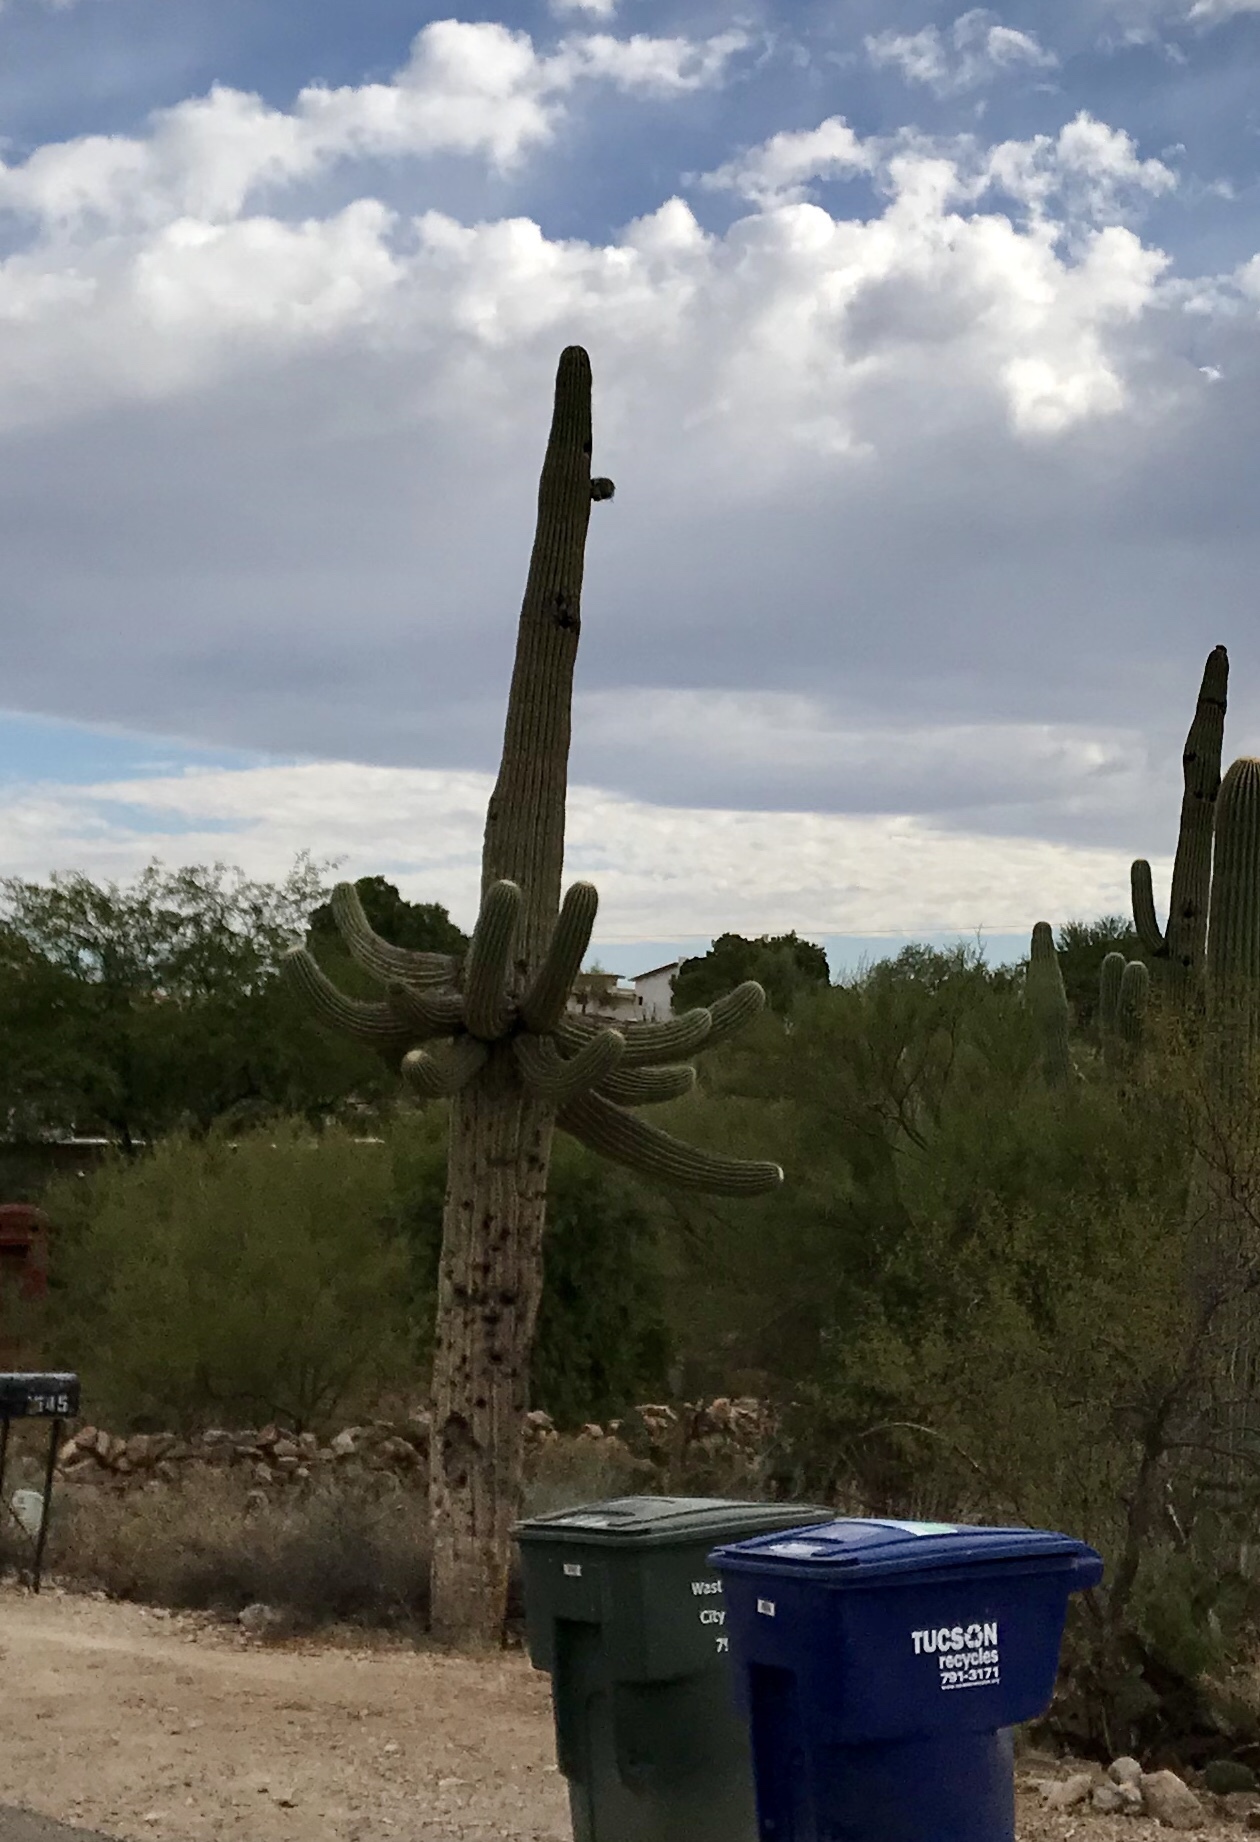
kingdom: Plantae
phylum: Tracheophyta
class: Magnoliopsida
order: Caryophyllales
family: Cactaceae
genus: Carnegiea
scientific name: Carnegiea gigantea
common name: Saguaro
